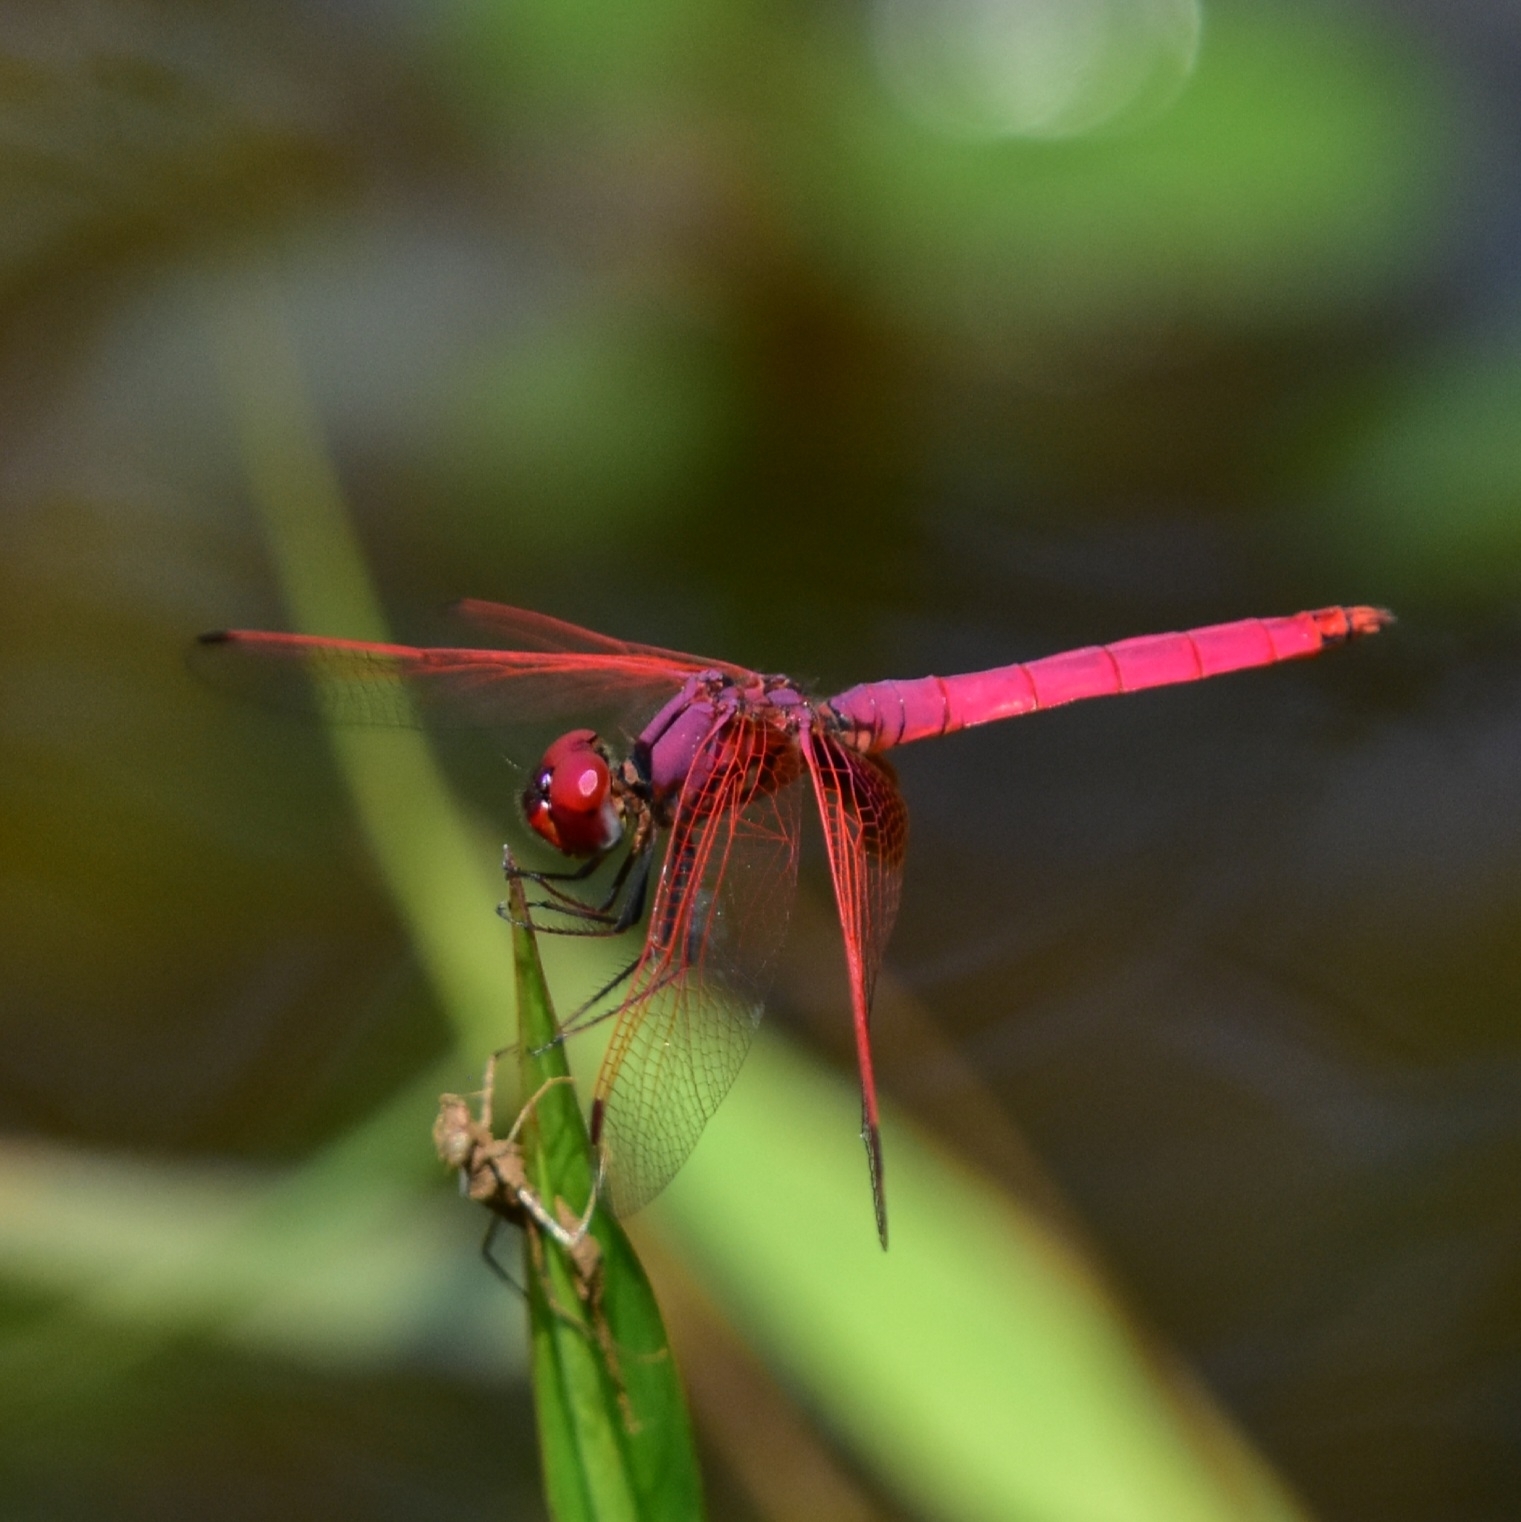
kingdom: Animalia
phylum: Arthropoda
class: Insecta
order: Odonata
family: Libellulidae
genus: Trithemis
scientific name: Trithemis aurora
